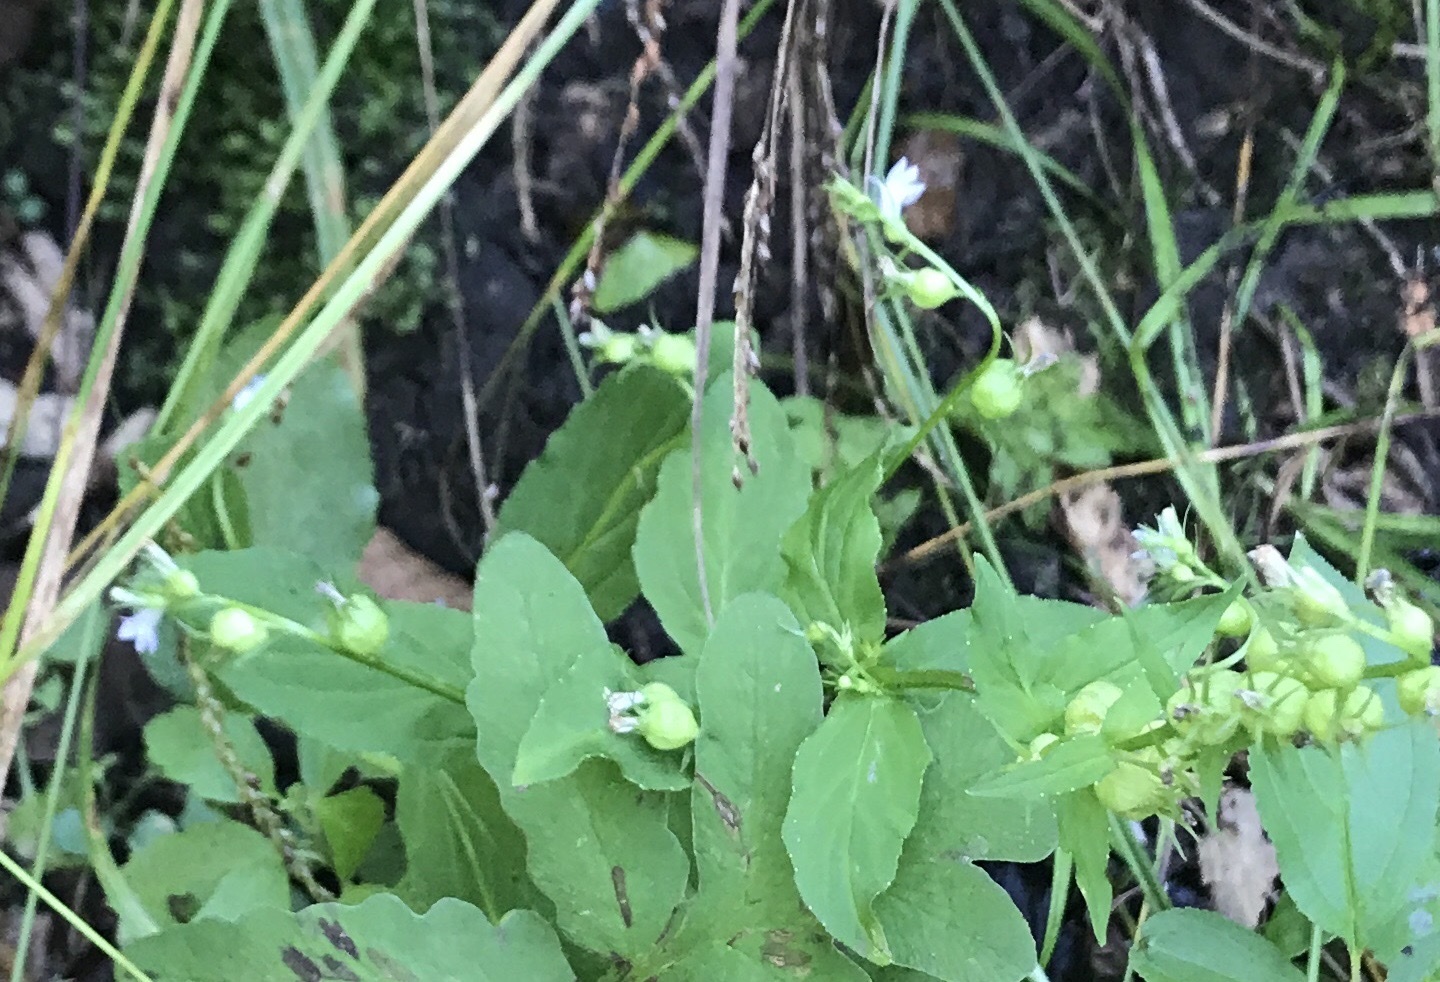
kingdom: Plantae
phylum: Tracheophyta
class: Magnoliopsida
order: Asterales
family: Campanulaceae
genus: Lobelia
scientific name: Lobelia inflata
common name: Indian tobacco
